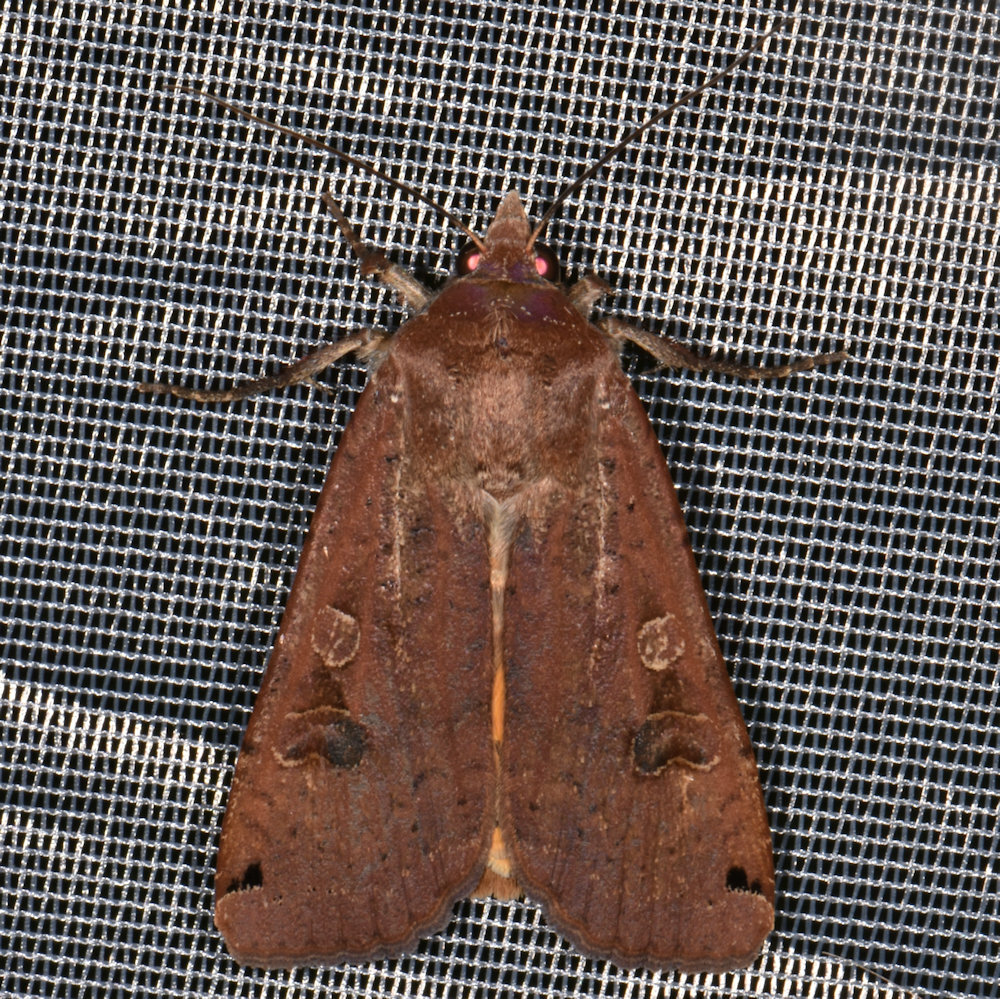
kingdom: Animalia
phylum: Arthropoda
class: Insecta
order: Lepidoptera
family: Noctuidae
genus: Noctua
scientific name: Noctua pronuba
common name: Large yellow underwing
